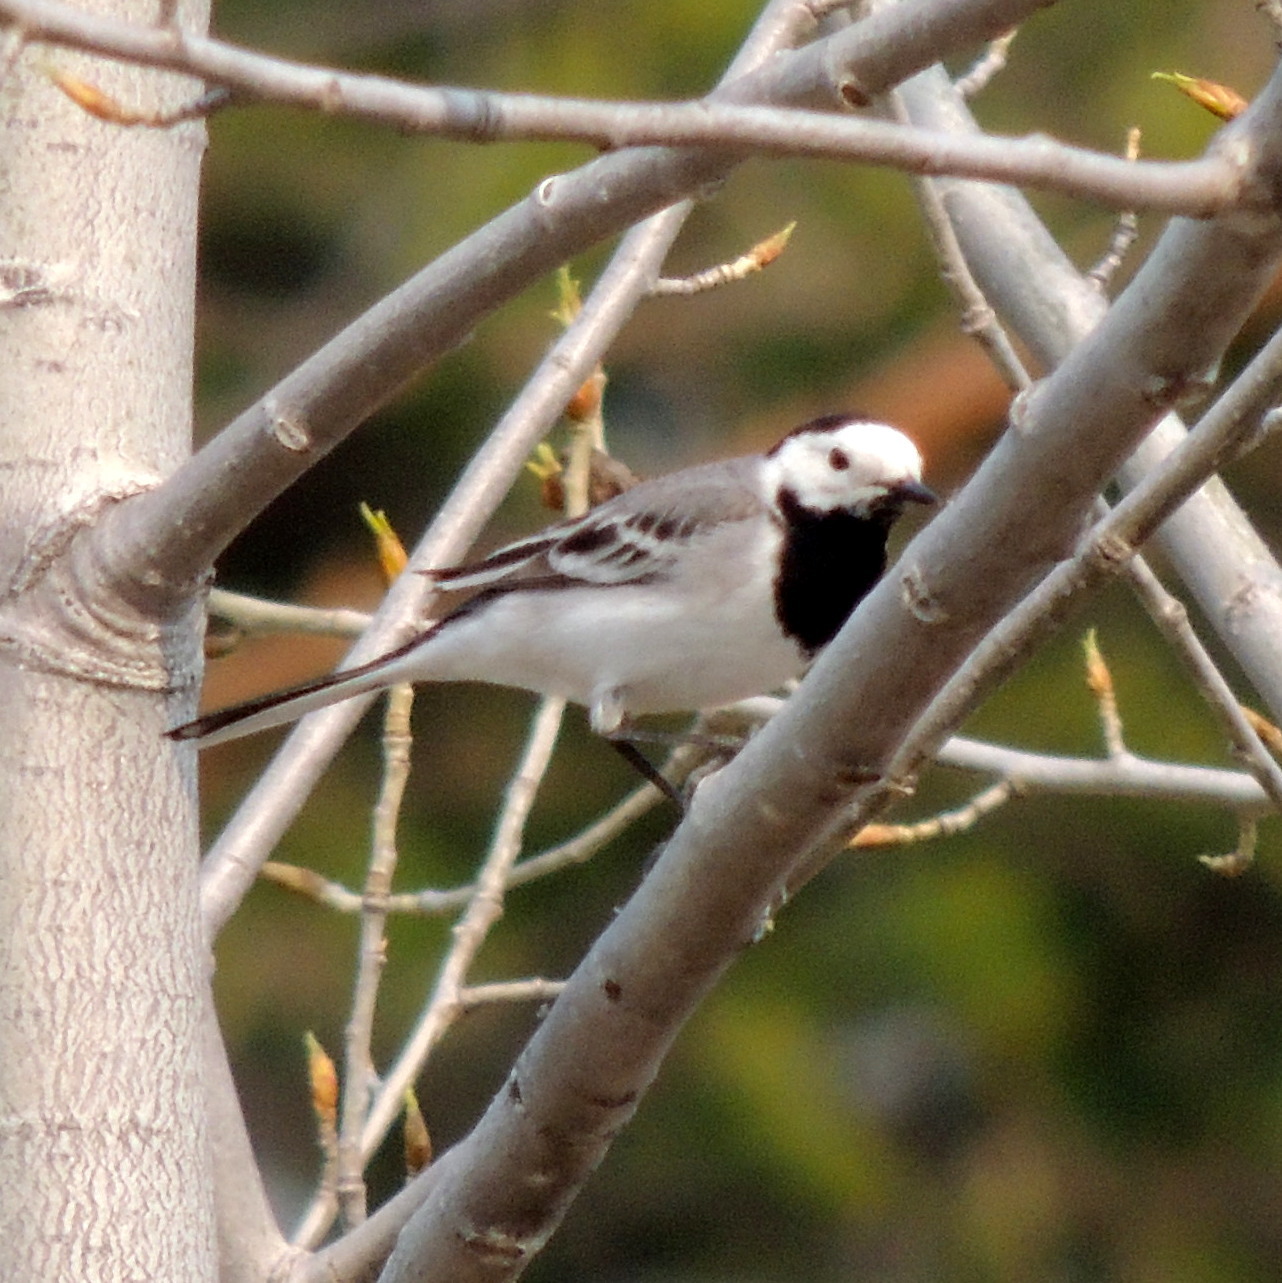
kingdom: Animalia
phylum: Chordata
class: Aves
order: Passeriformes
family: Motacillidae
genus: Motacilla
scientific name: Motacilla alba
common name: White wagtail
